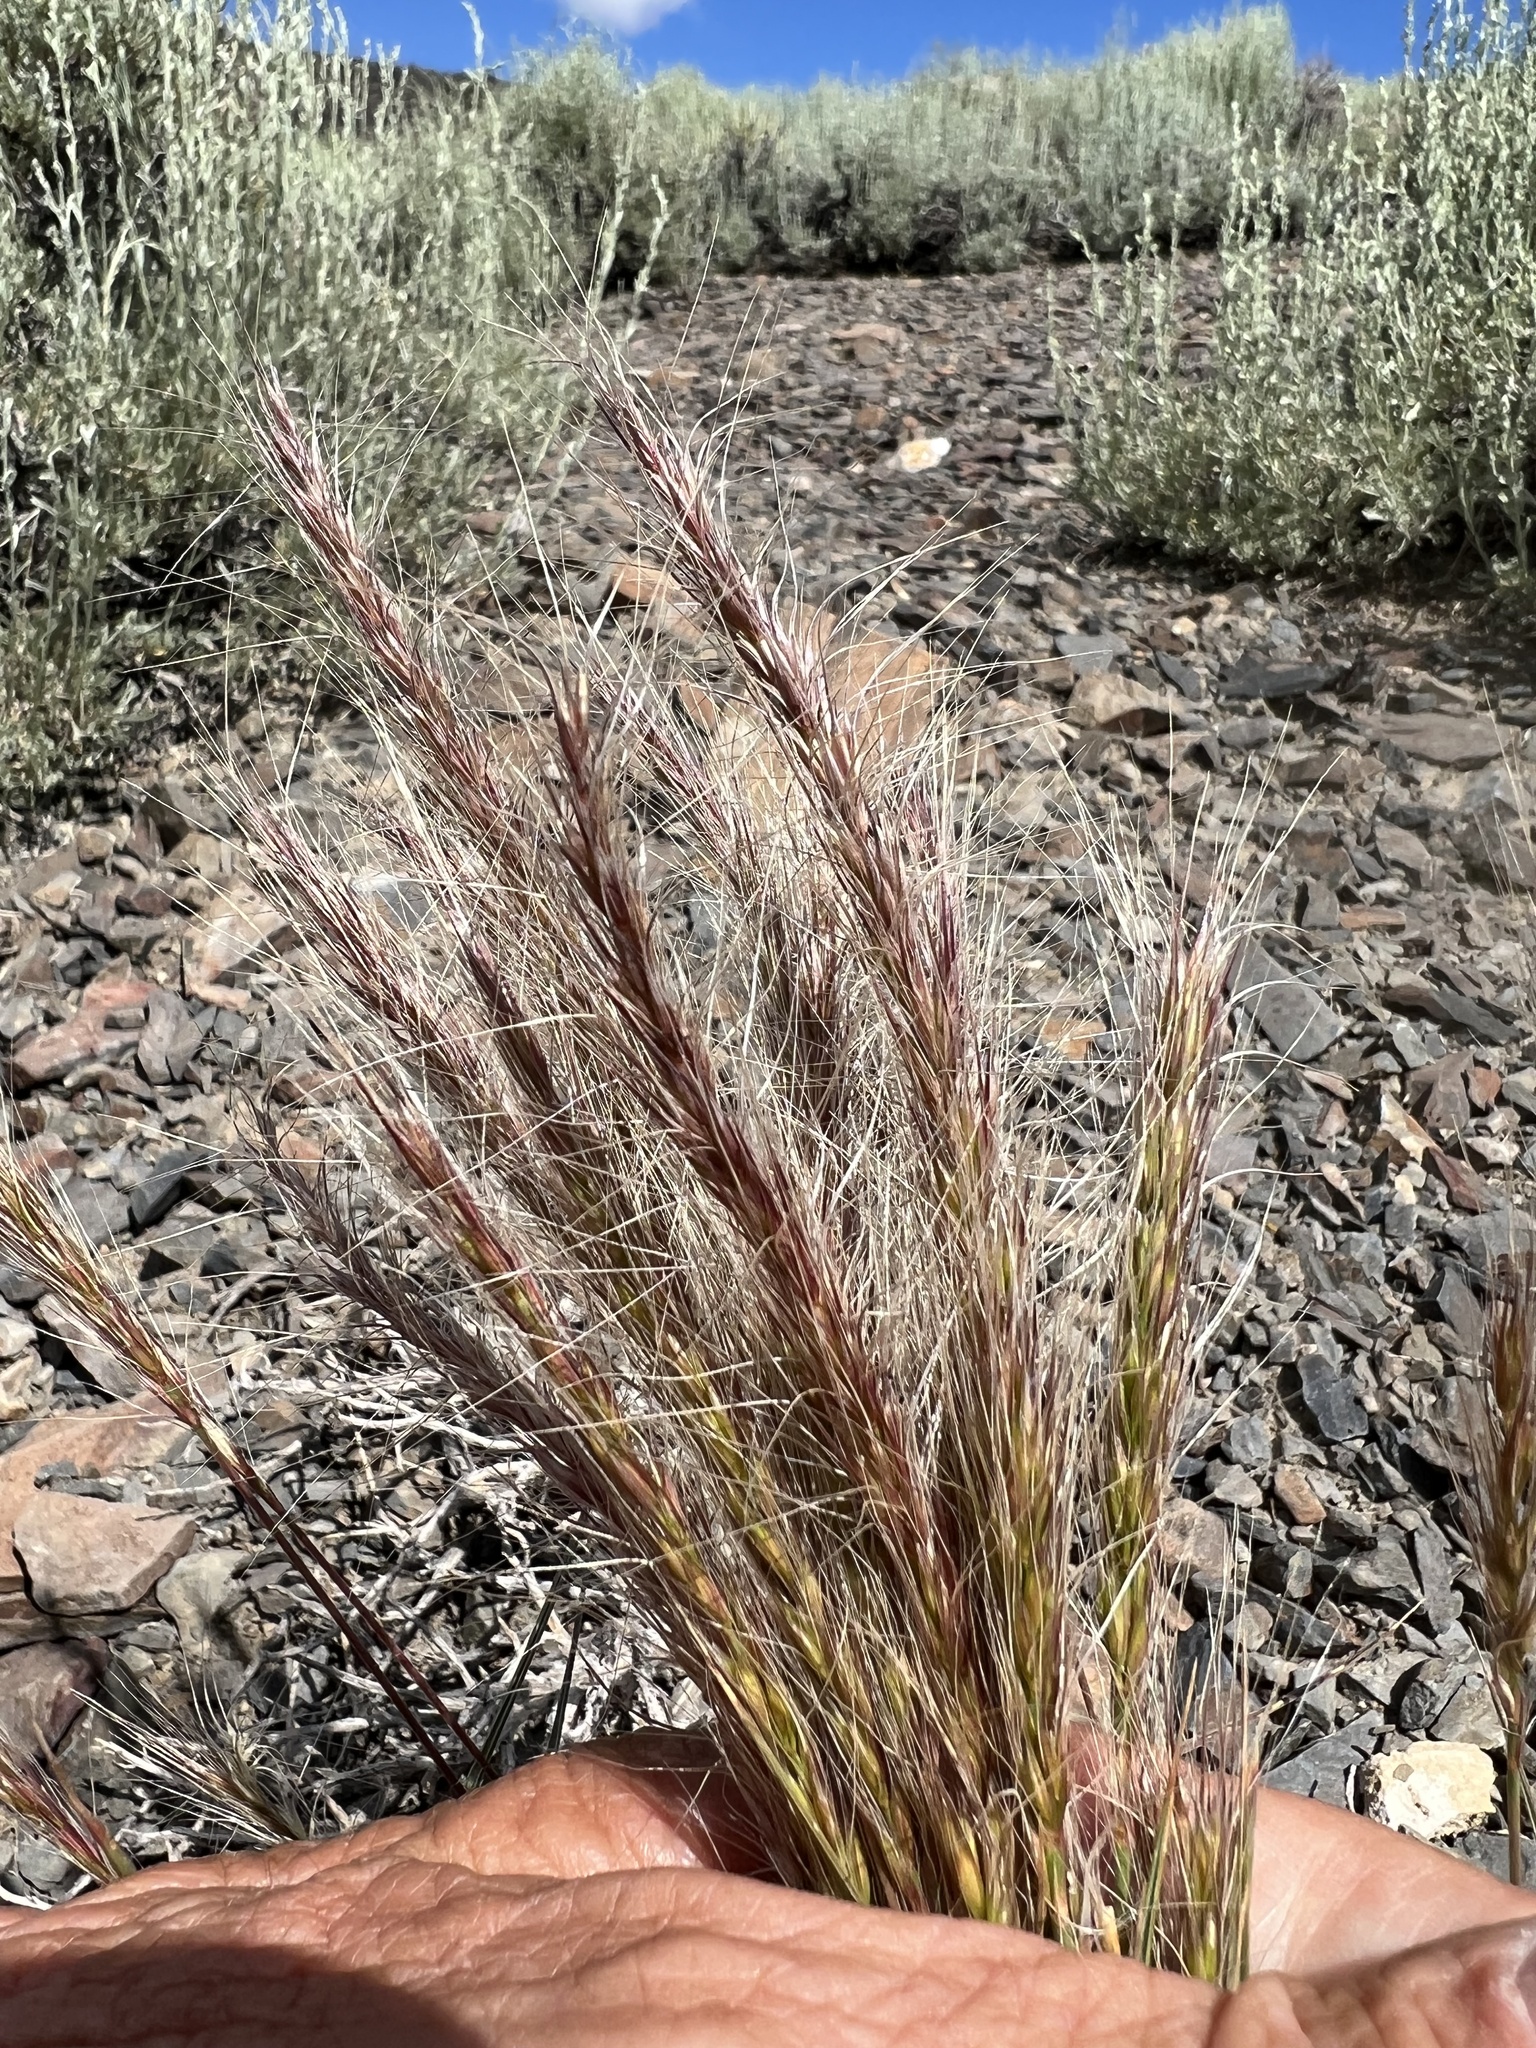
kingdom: Plantae
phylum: Tracheophyta
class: Liliopsida
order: Poales
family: Poaceae
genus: Elymus
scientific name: Elymus elymoides
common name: Bottlebrush squirreltail
